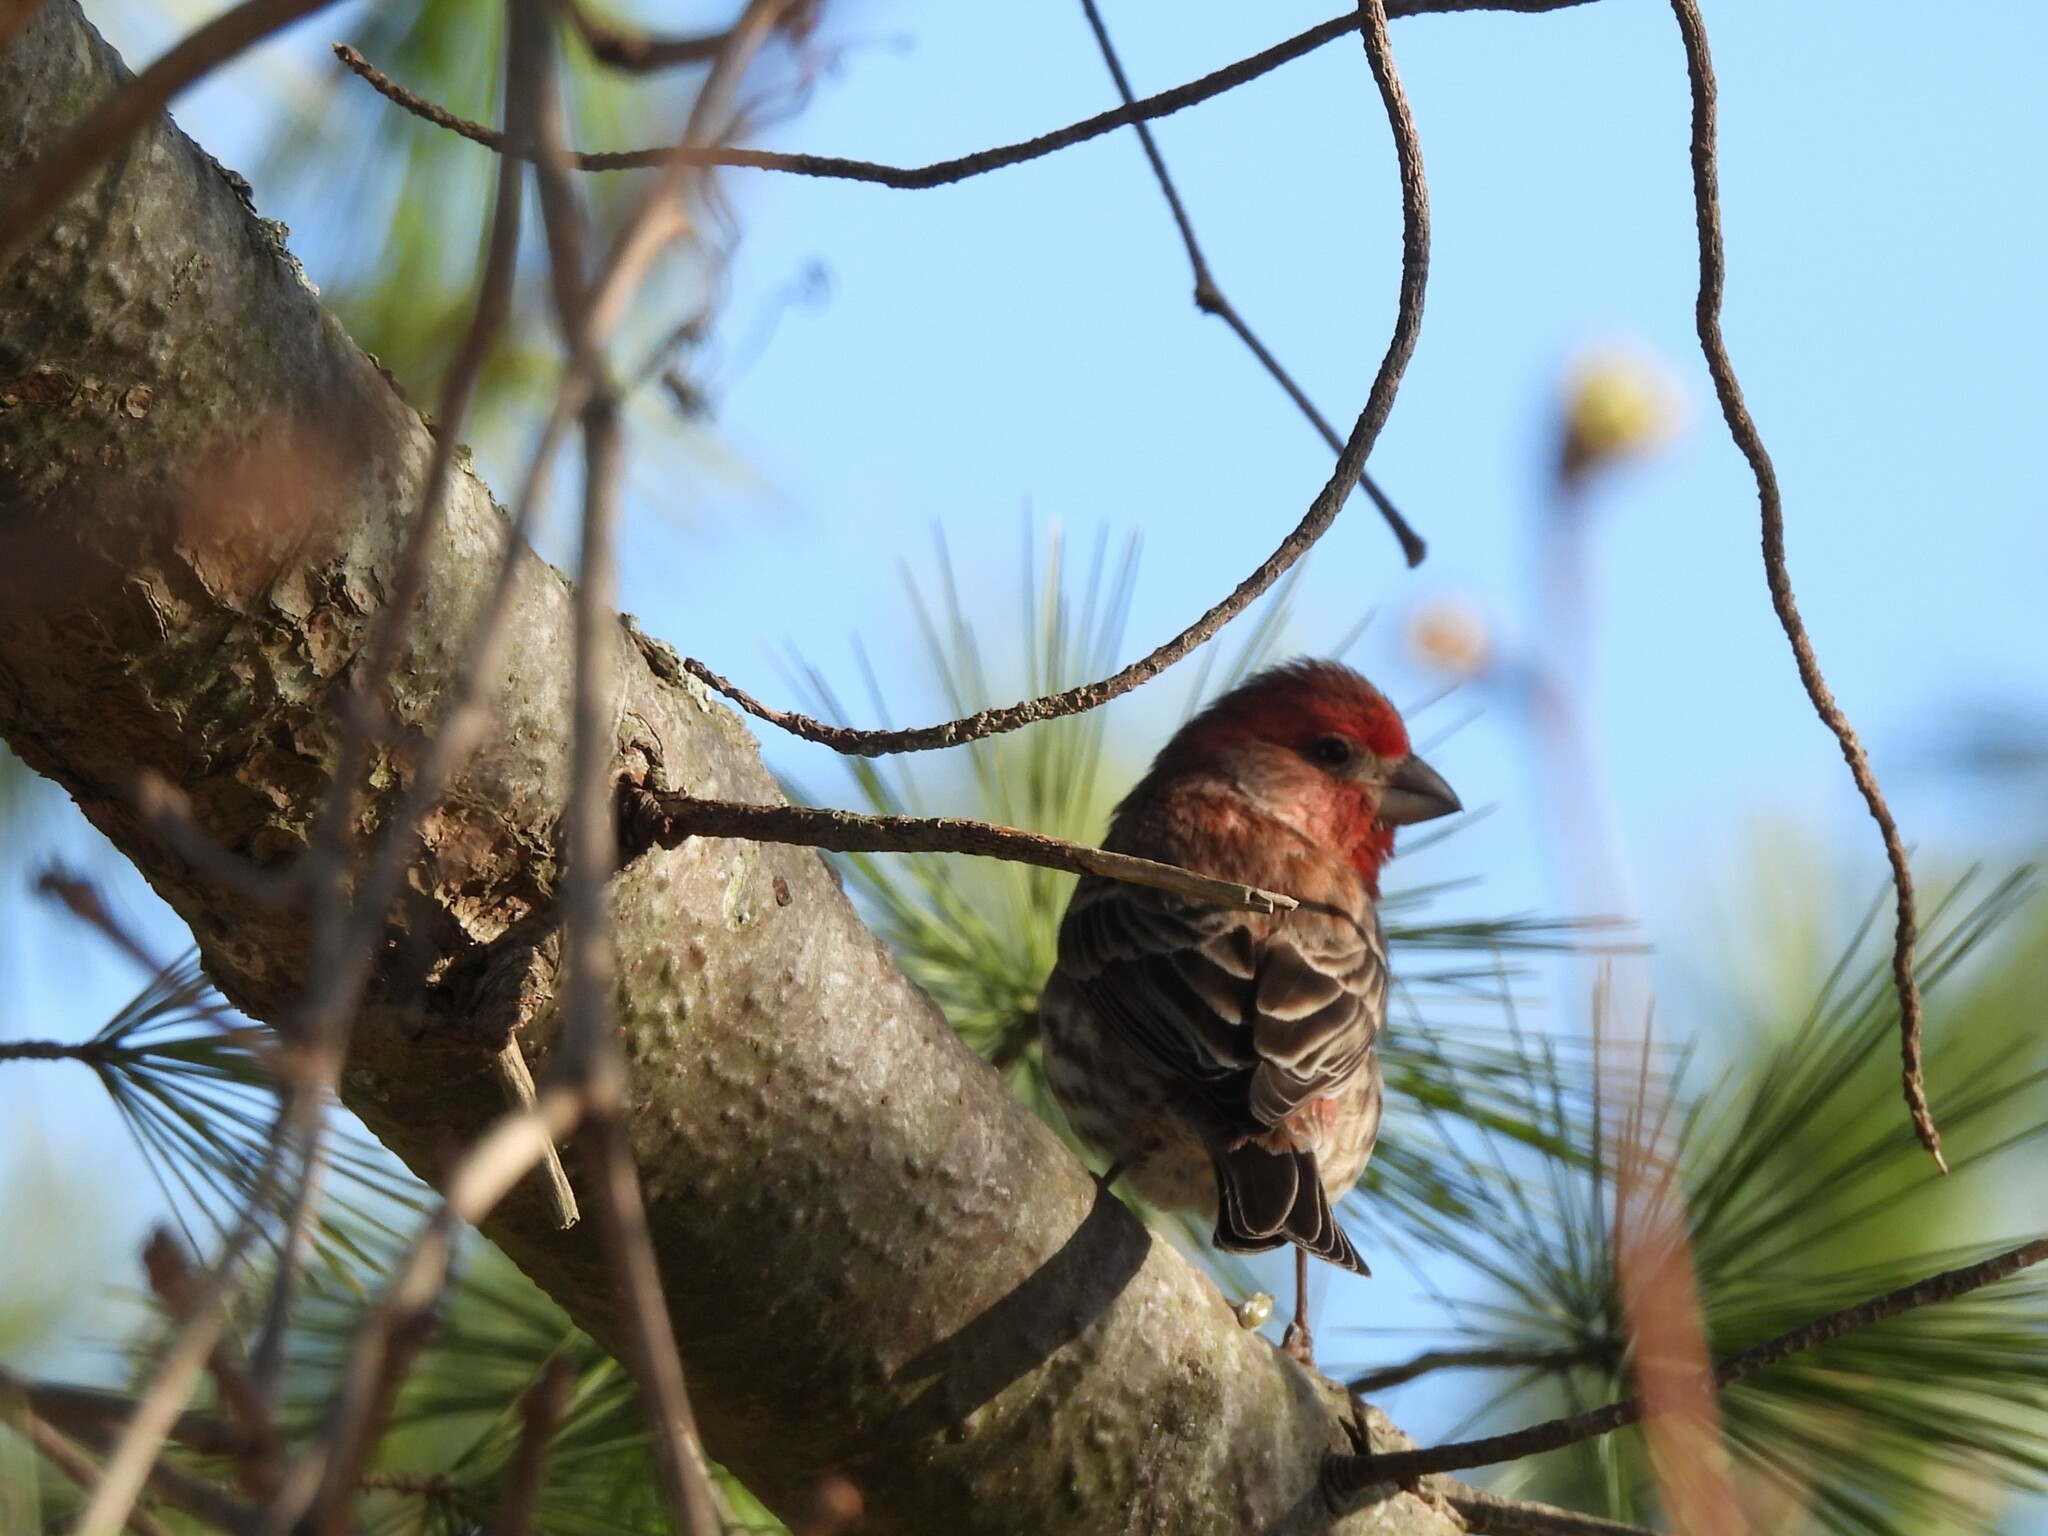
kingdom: Animalia
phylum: Chordata
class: Aves
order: Passeriformes
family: Fringillidae
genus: Haemorhous
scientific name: Haemorhous mexicanus
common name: House finch
